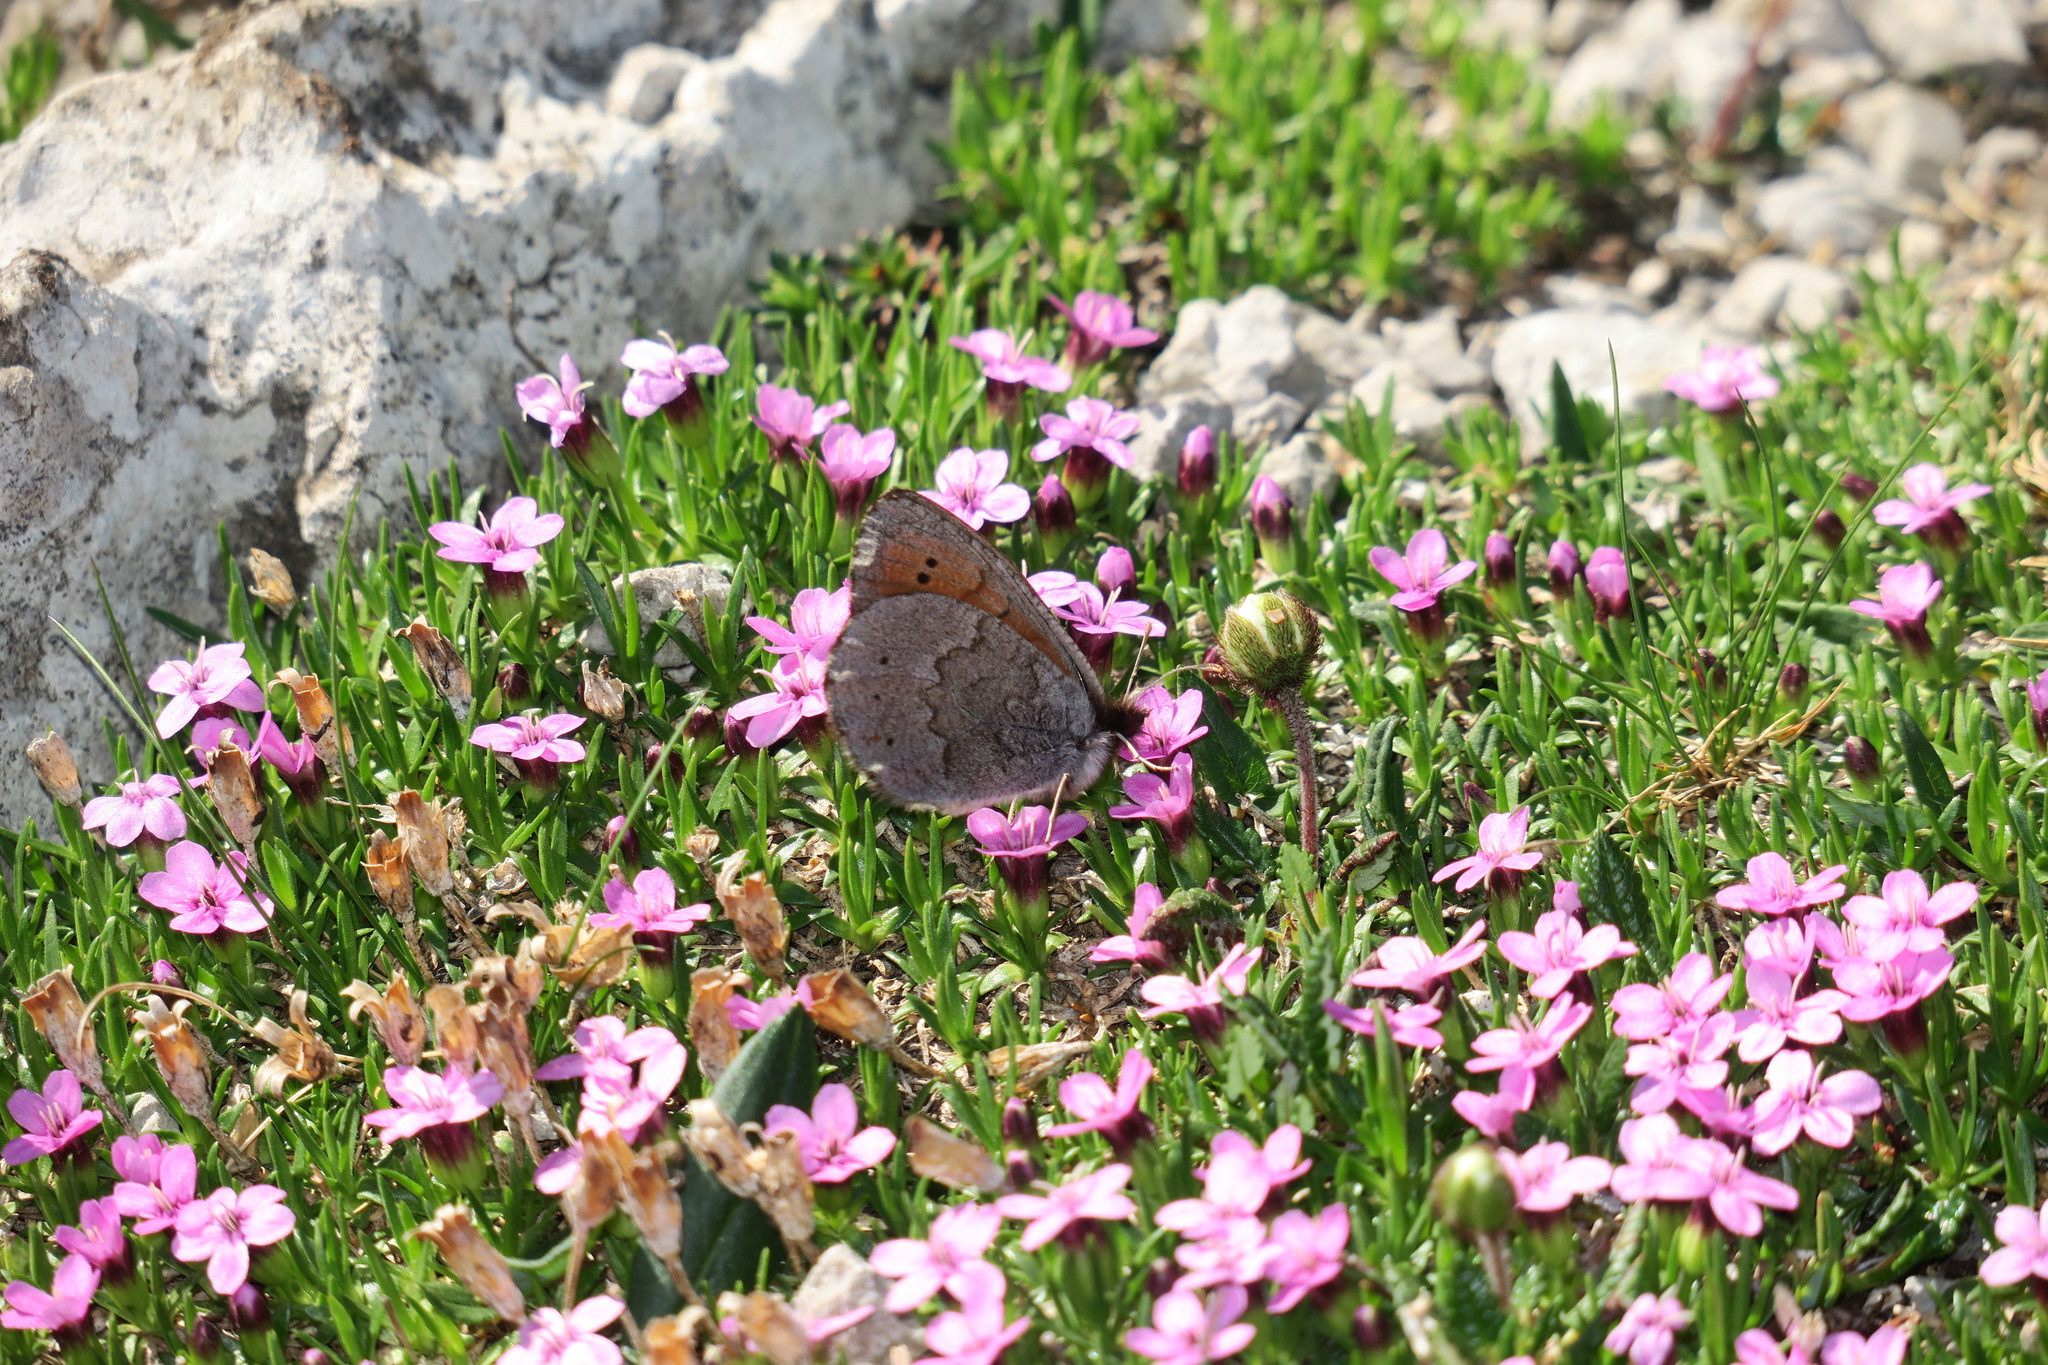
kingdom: Animalia
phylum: Arthropoda
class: Insecta
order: Lepidoptera
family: Nymphalidae
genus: Erebia
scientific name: Erebia pandrose
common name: Dewy ringlet
